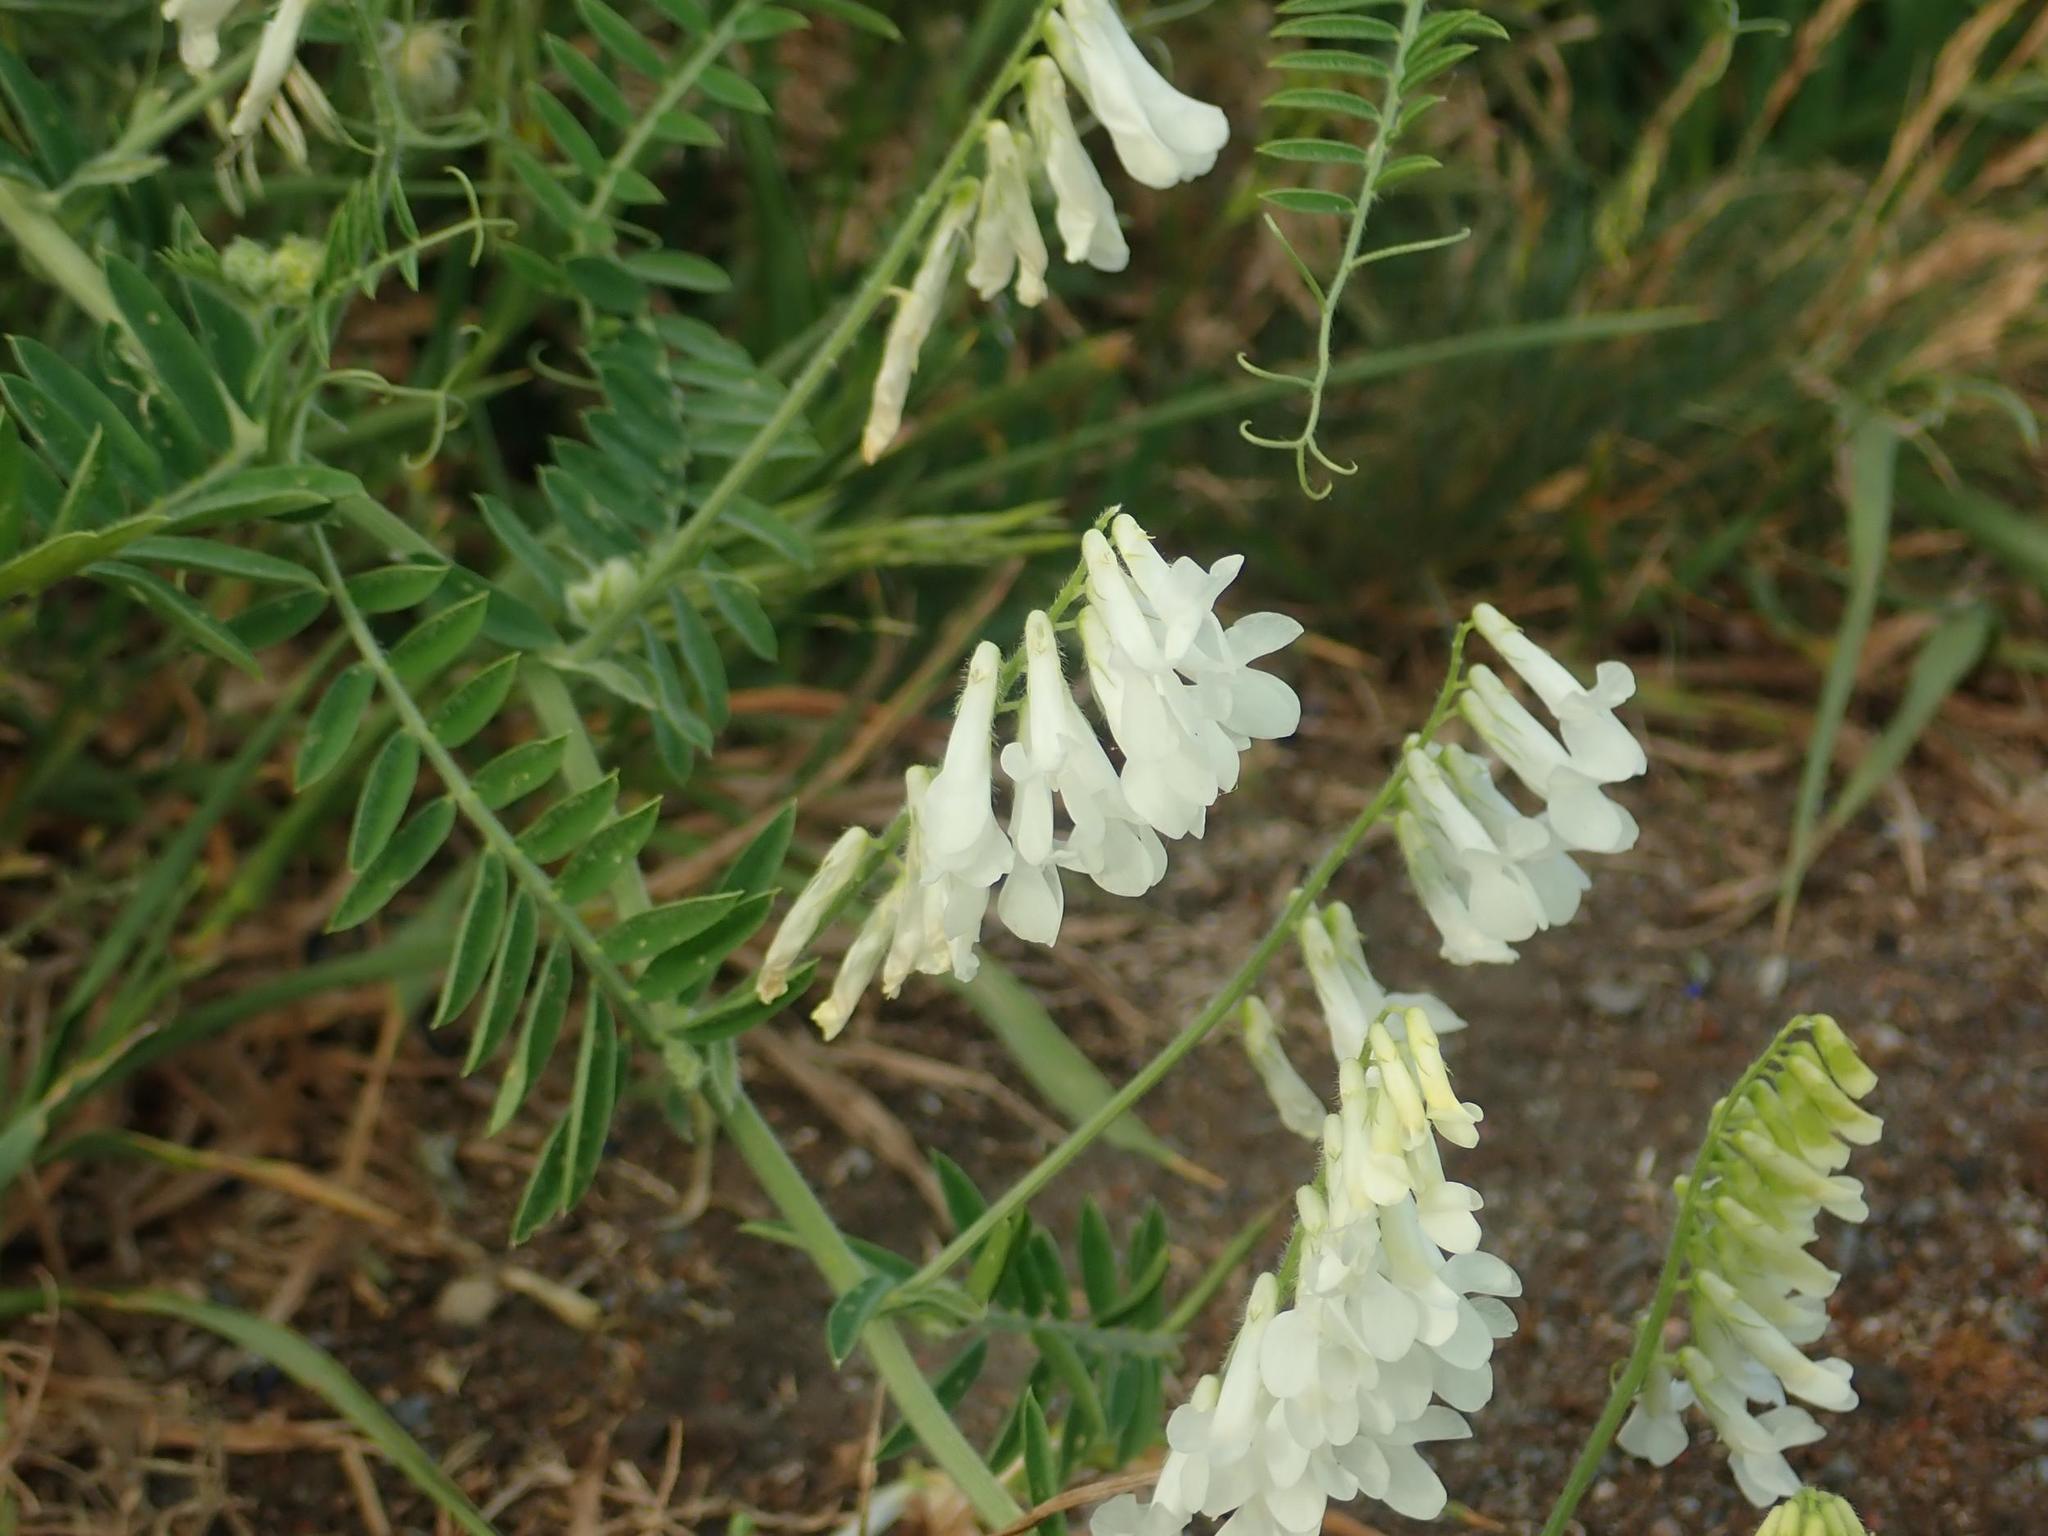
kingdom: Plantae
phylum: Tracheophyta
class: Magnoliopsida
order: Fabales
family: Fabaceae
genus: Vicia
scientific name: Vicia villosa
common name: Fodder vetch
